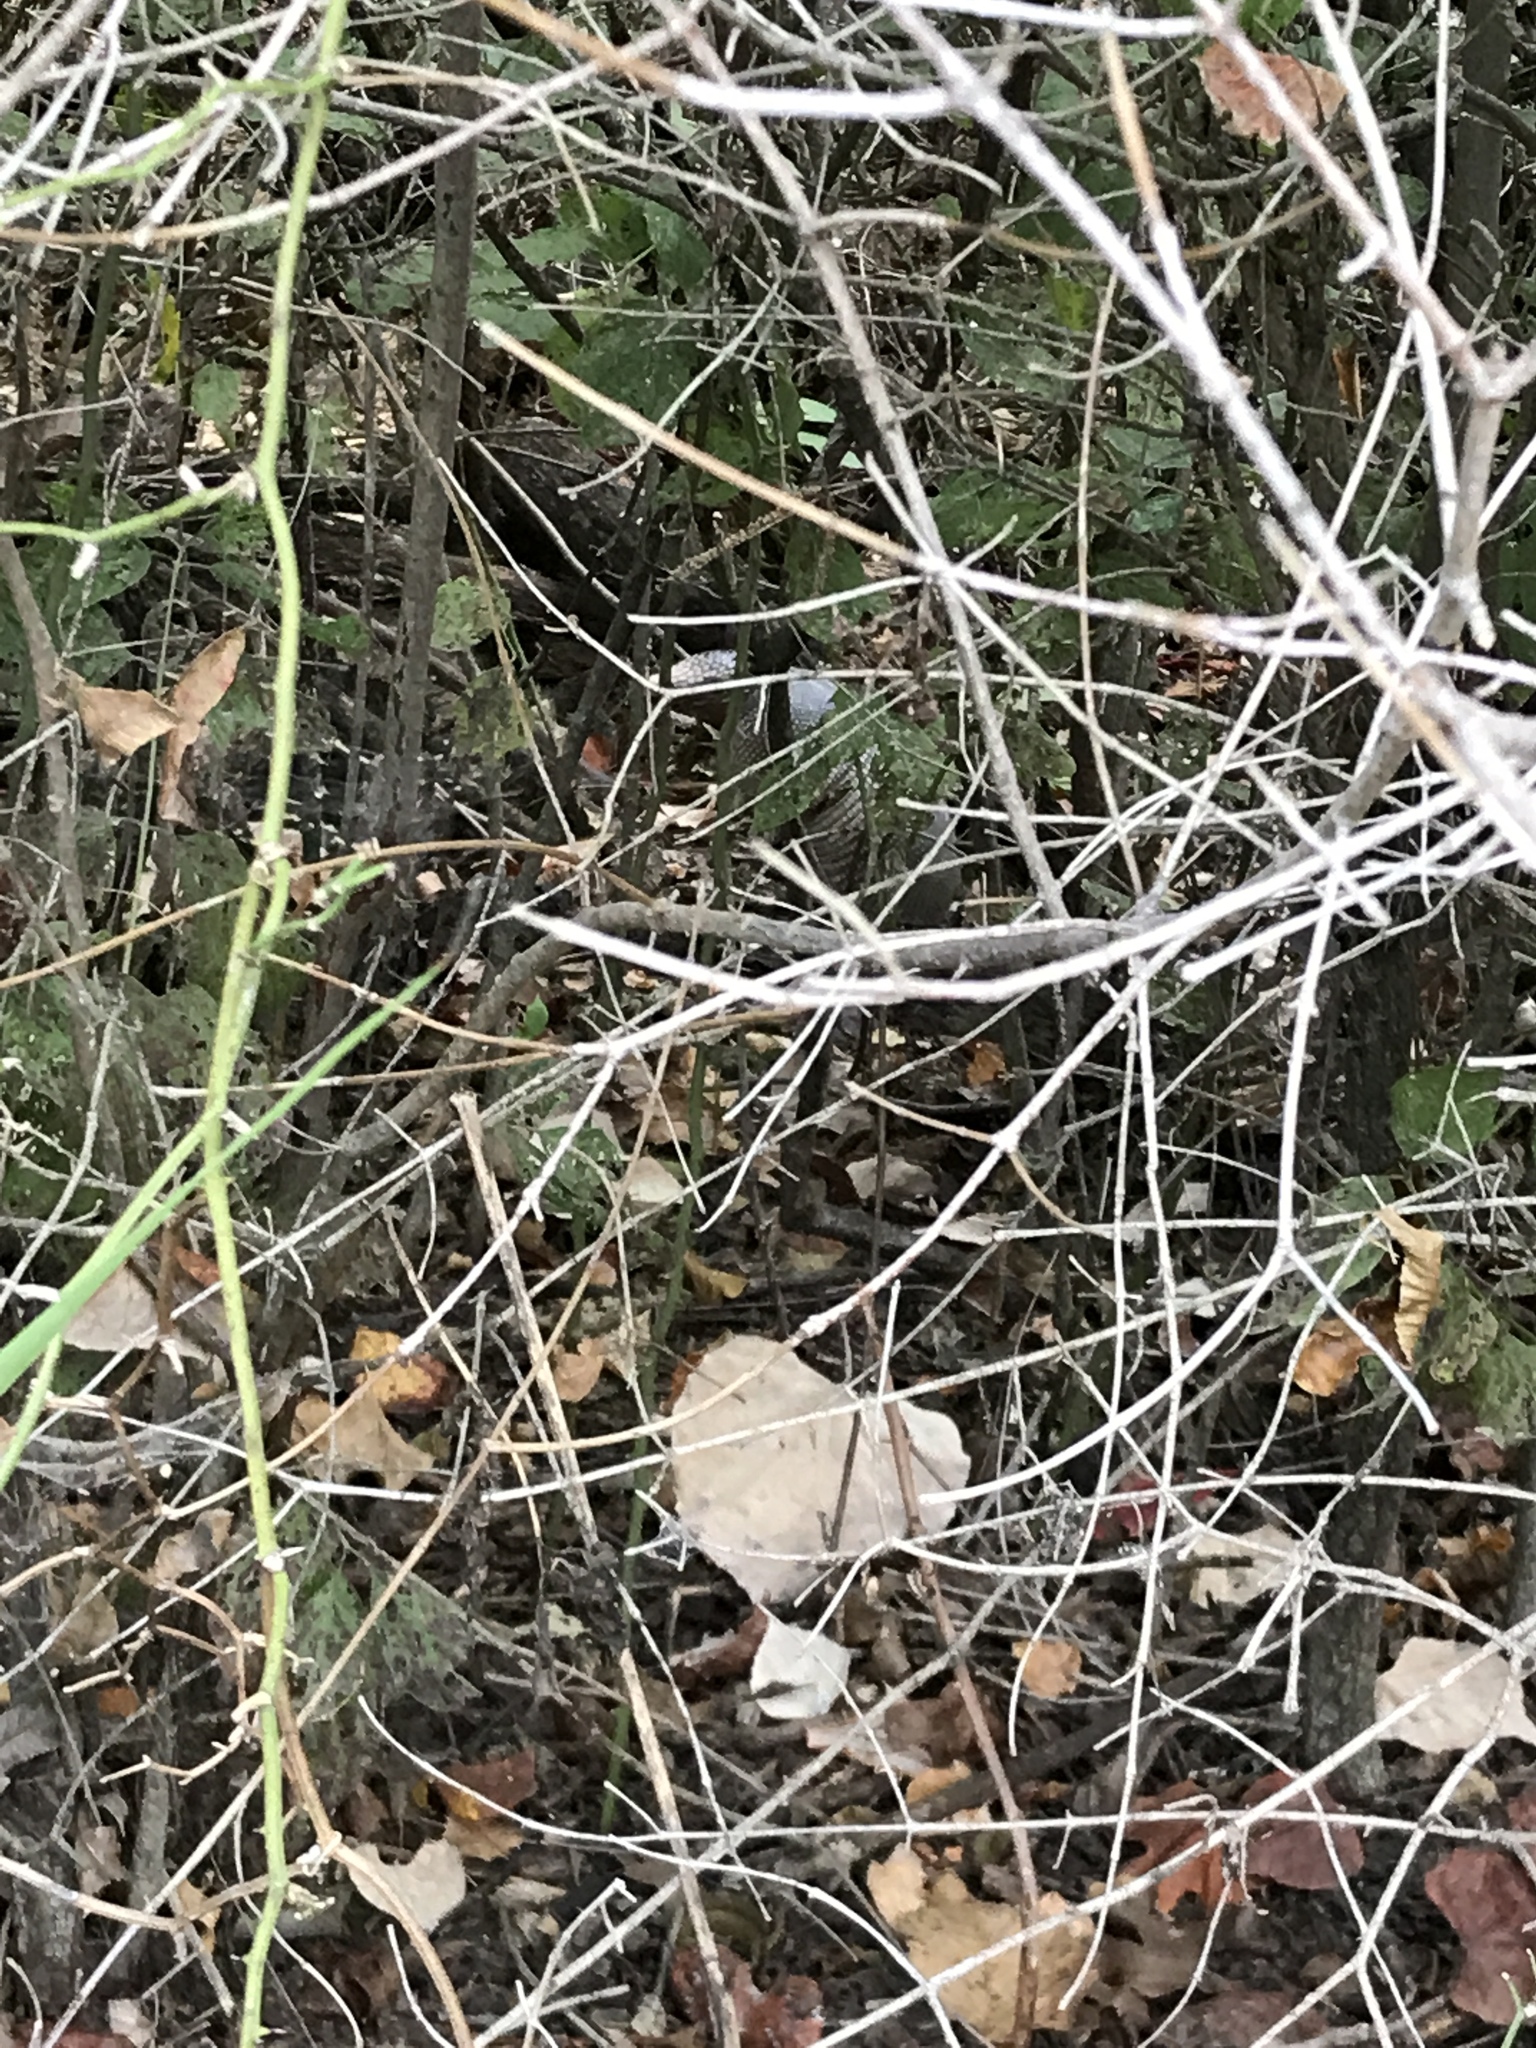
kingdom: Animalia
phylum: Chordata
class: Mammalia
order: Cingulata
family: Dasypodidae
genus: Dasypus
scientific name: Dasypus novemcinctus
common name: Nine-banded armadillo
